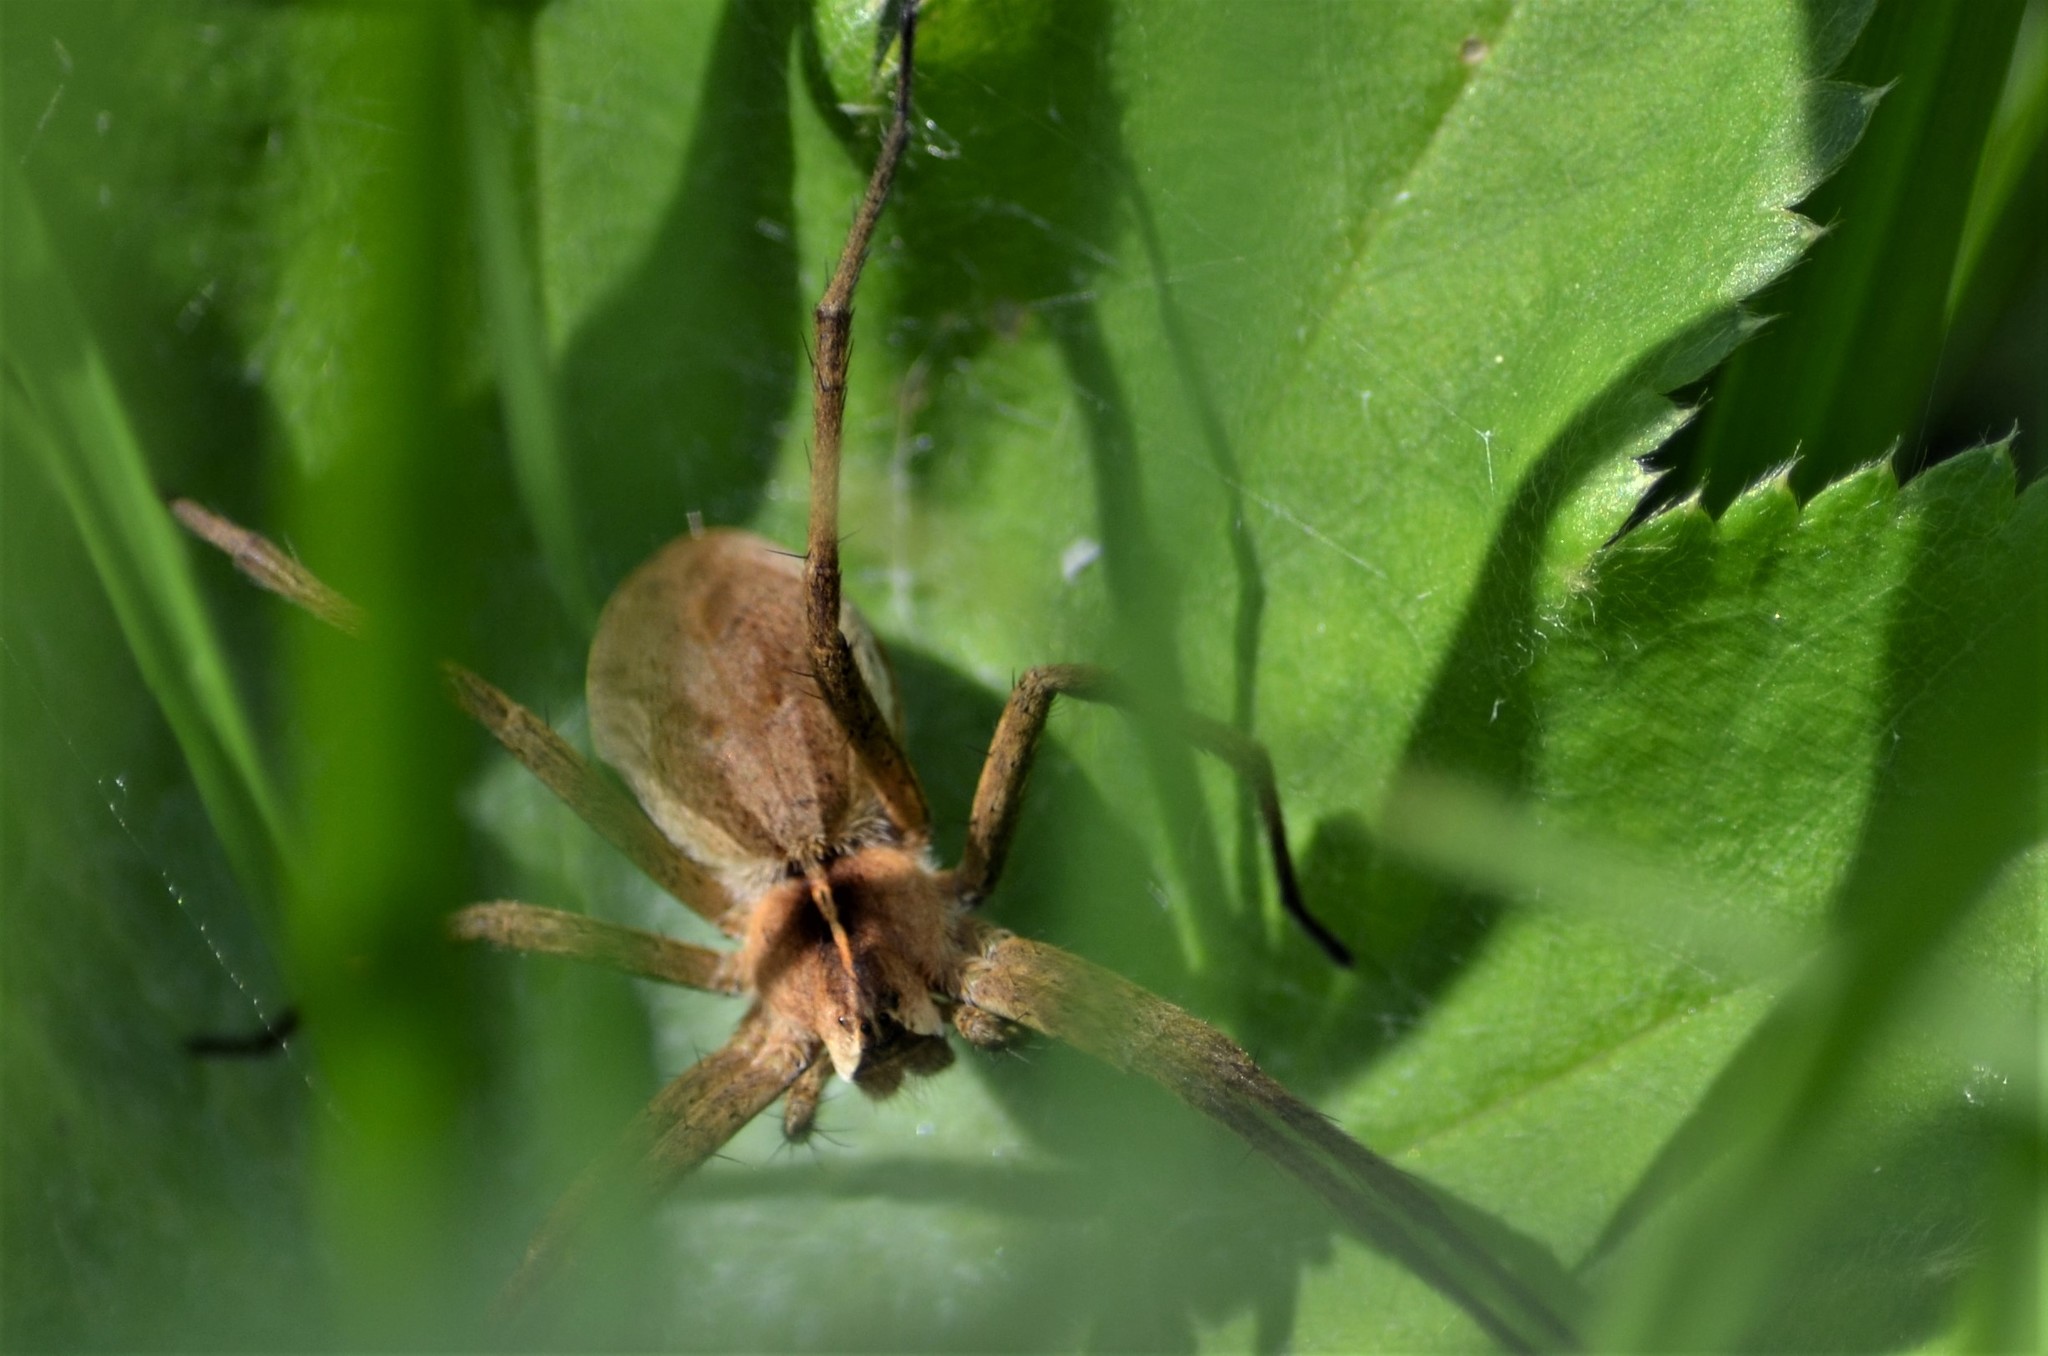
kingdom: Animalia
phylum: Arthropoda
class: Arachnida
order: Araneae
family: Pisauridae
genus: Pisaura
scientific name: Pisaura mirabilis
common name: Tent spider
